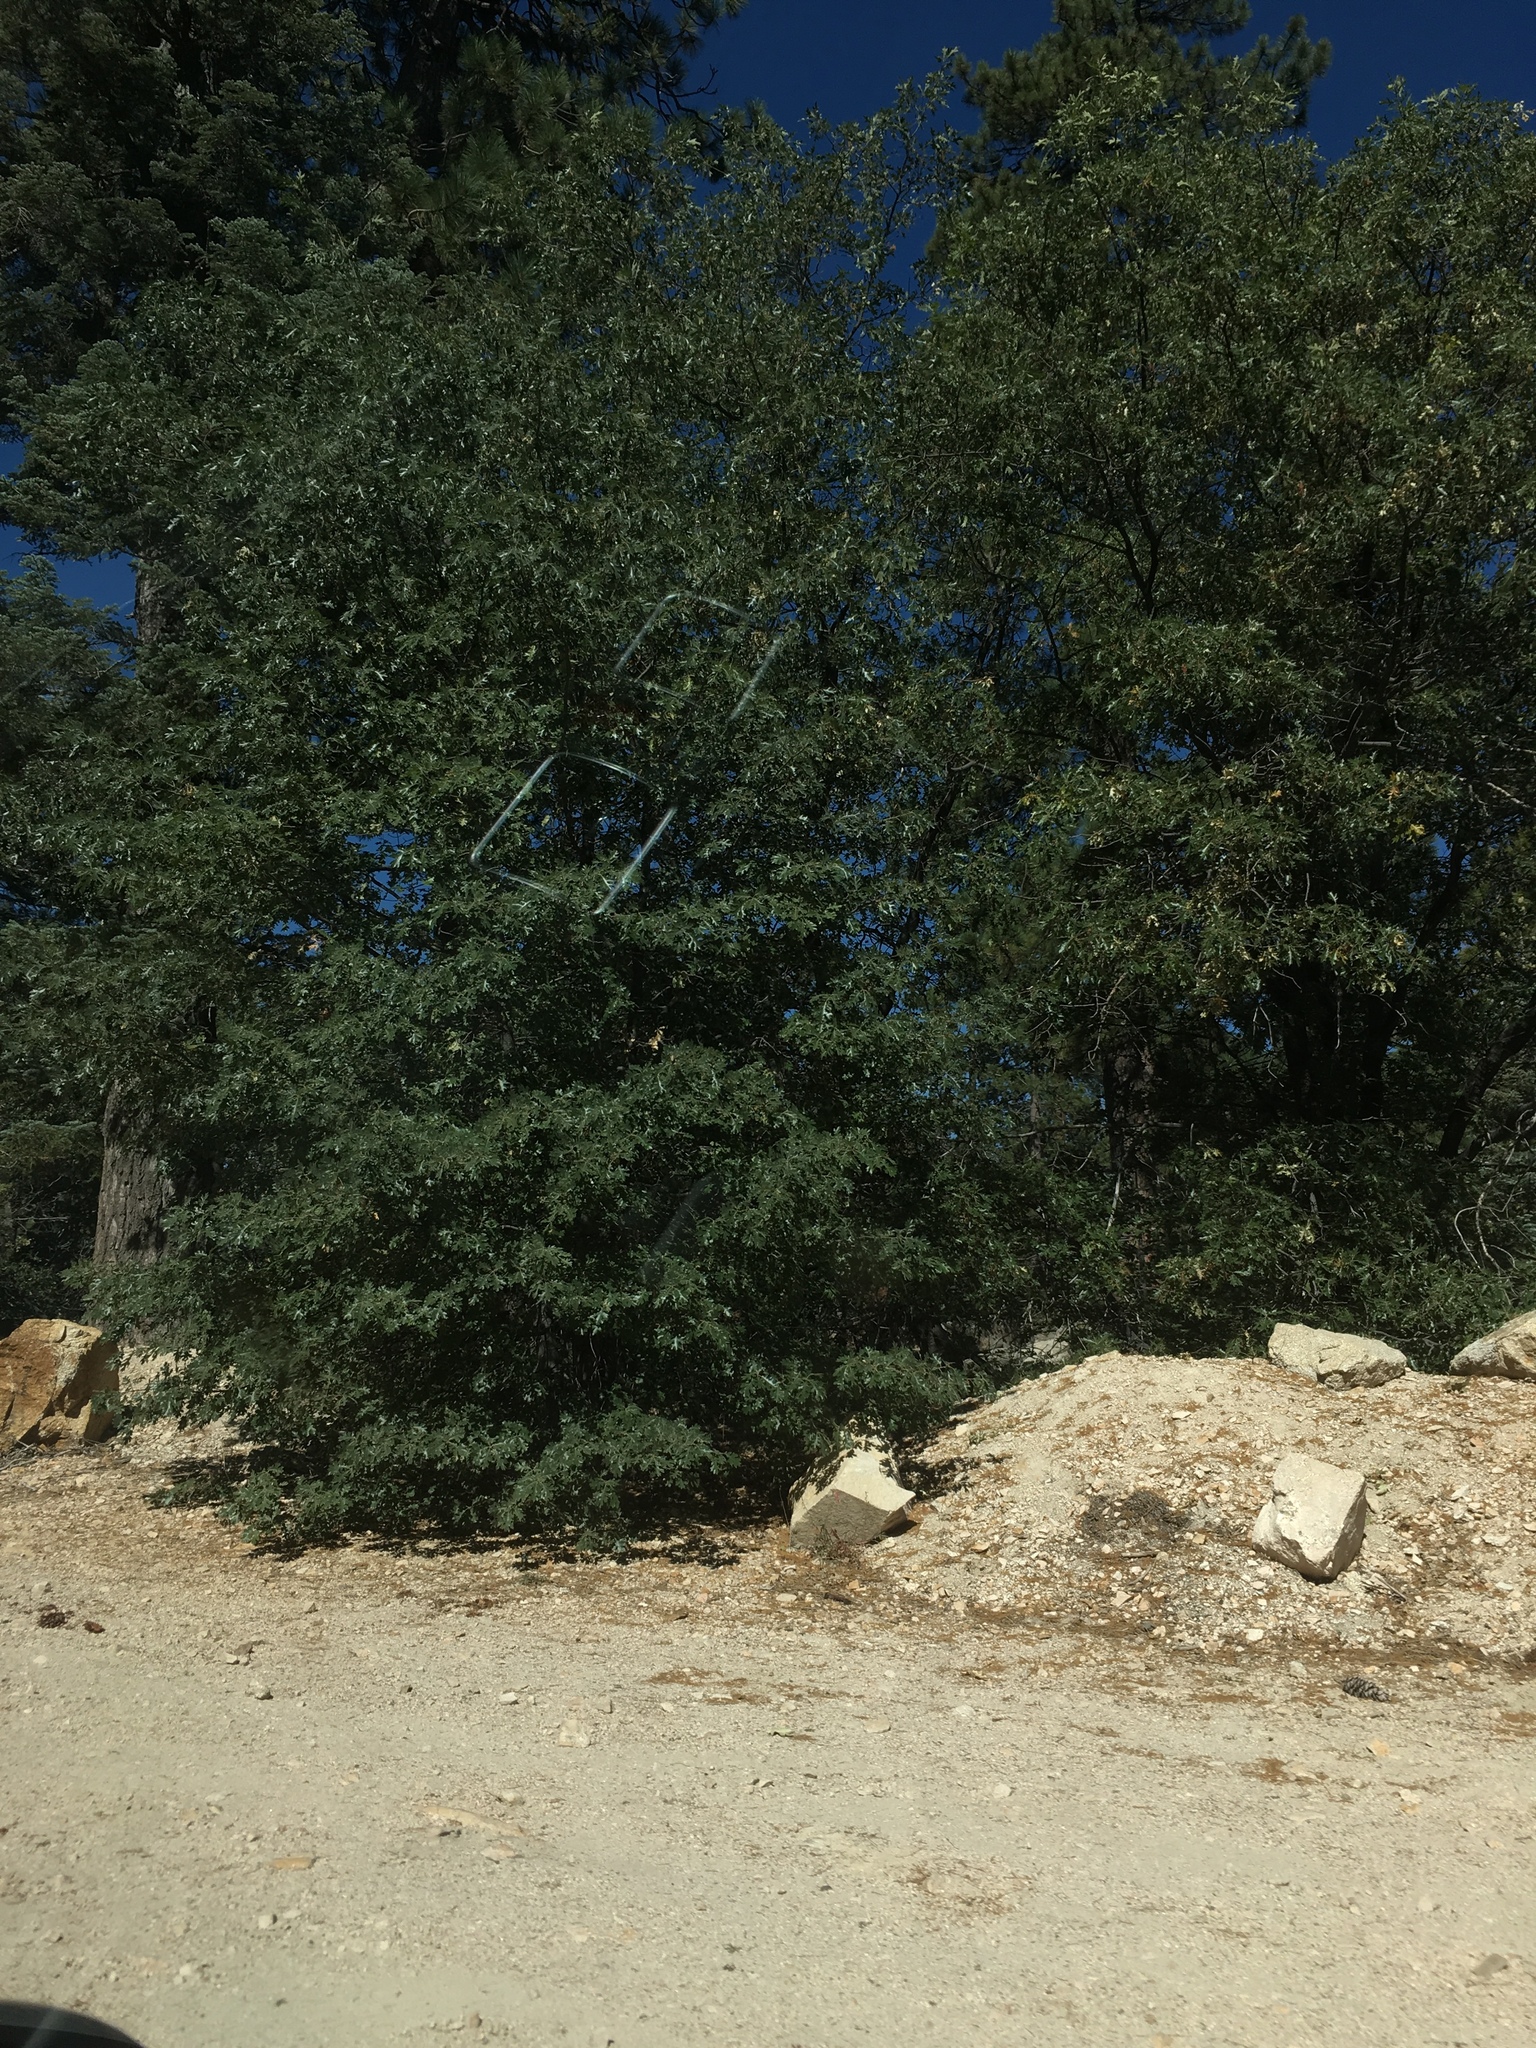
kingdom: Plantae
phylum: Tracheophyta
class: Magnoliopsida
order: Fagales
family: Fagaceae
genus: Quercus
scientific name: Quercus kelloggii
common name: California black oak
